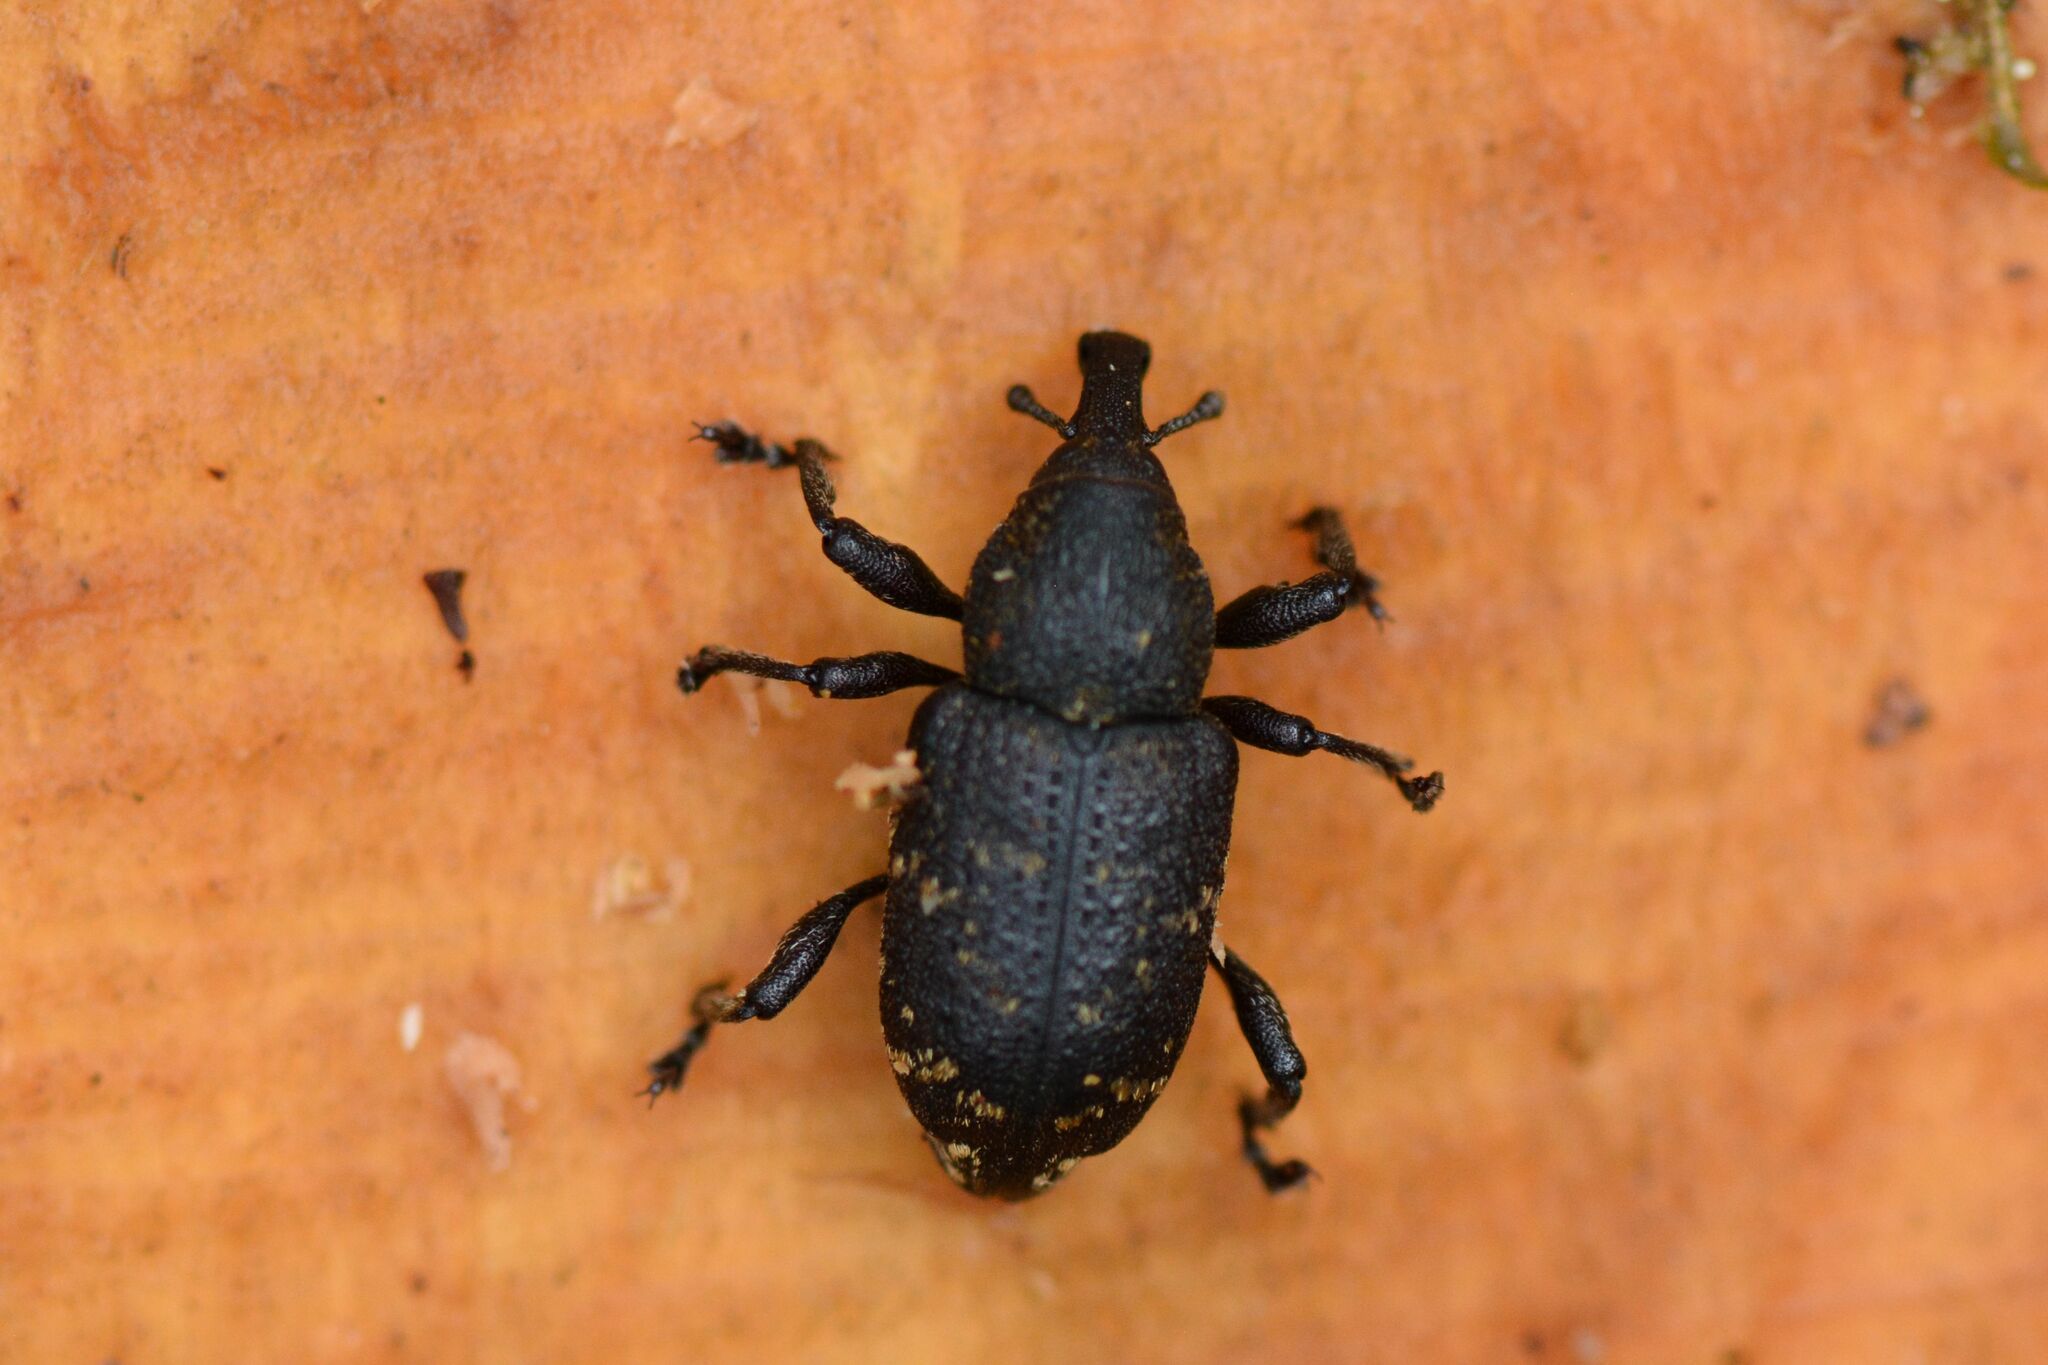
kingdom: Animalia
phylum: Arthropoda
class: Insecta
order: Coleoptera
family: Curculionidae
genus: Hylobius
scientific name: Hylobius abietis
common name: Large pine weevil
